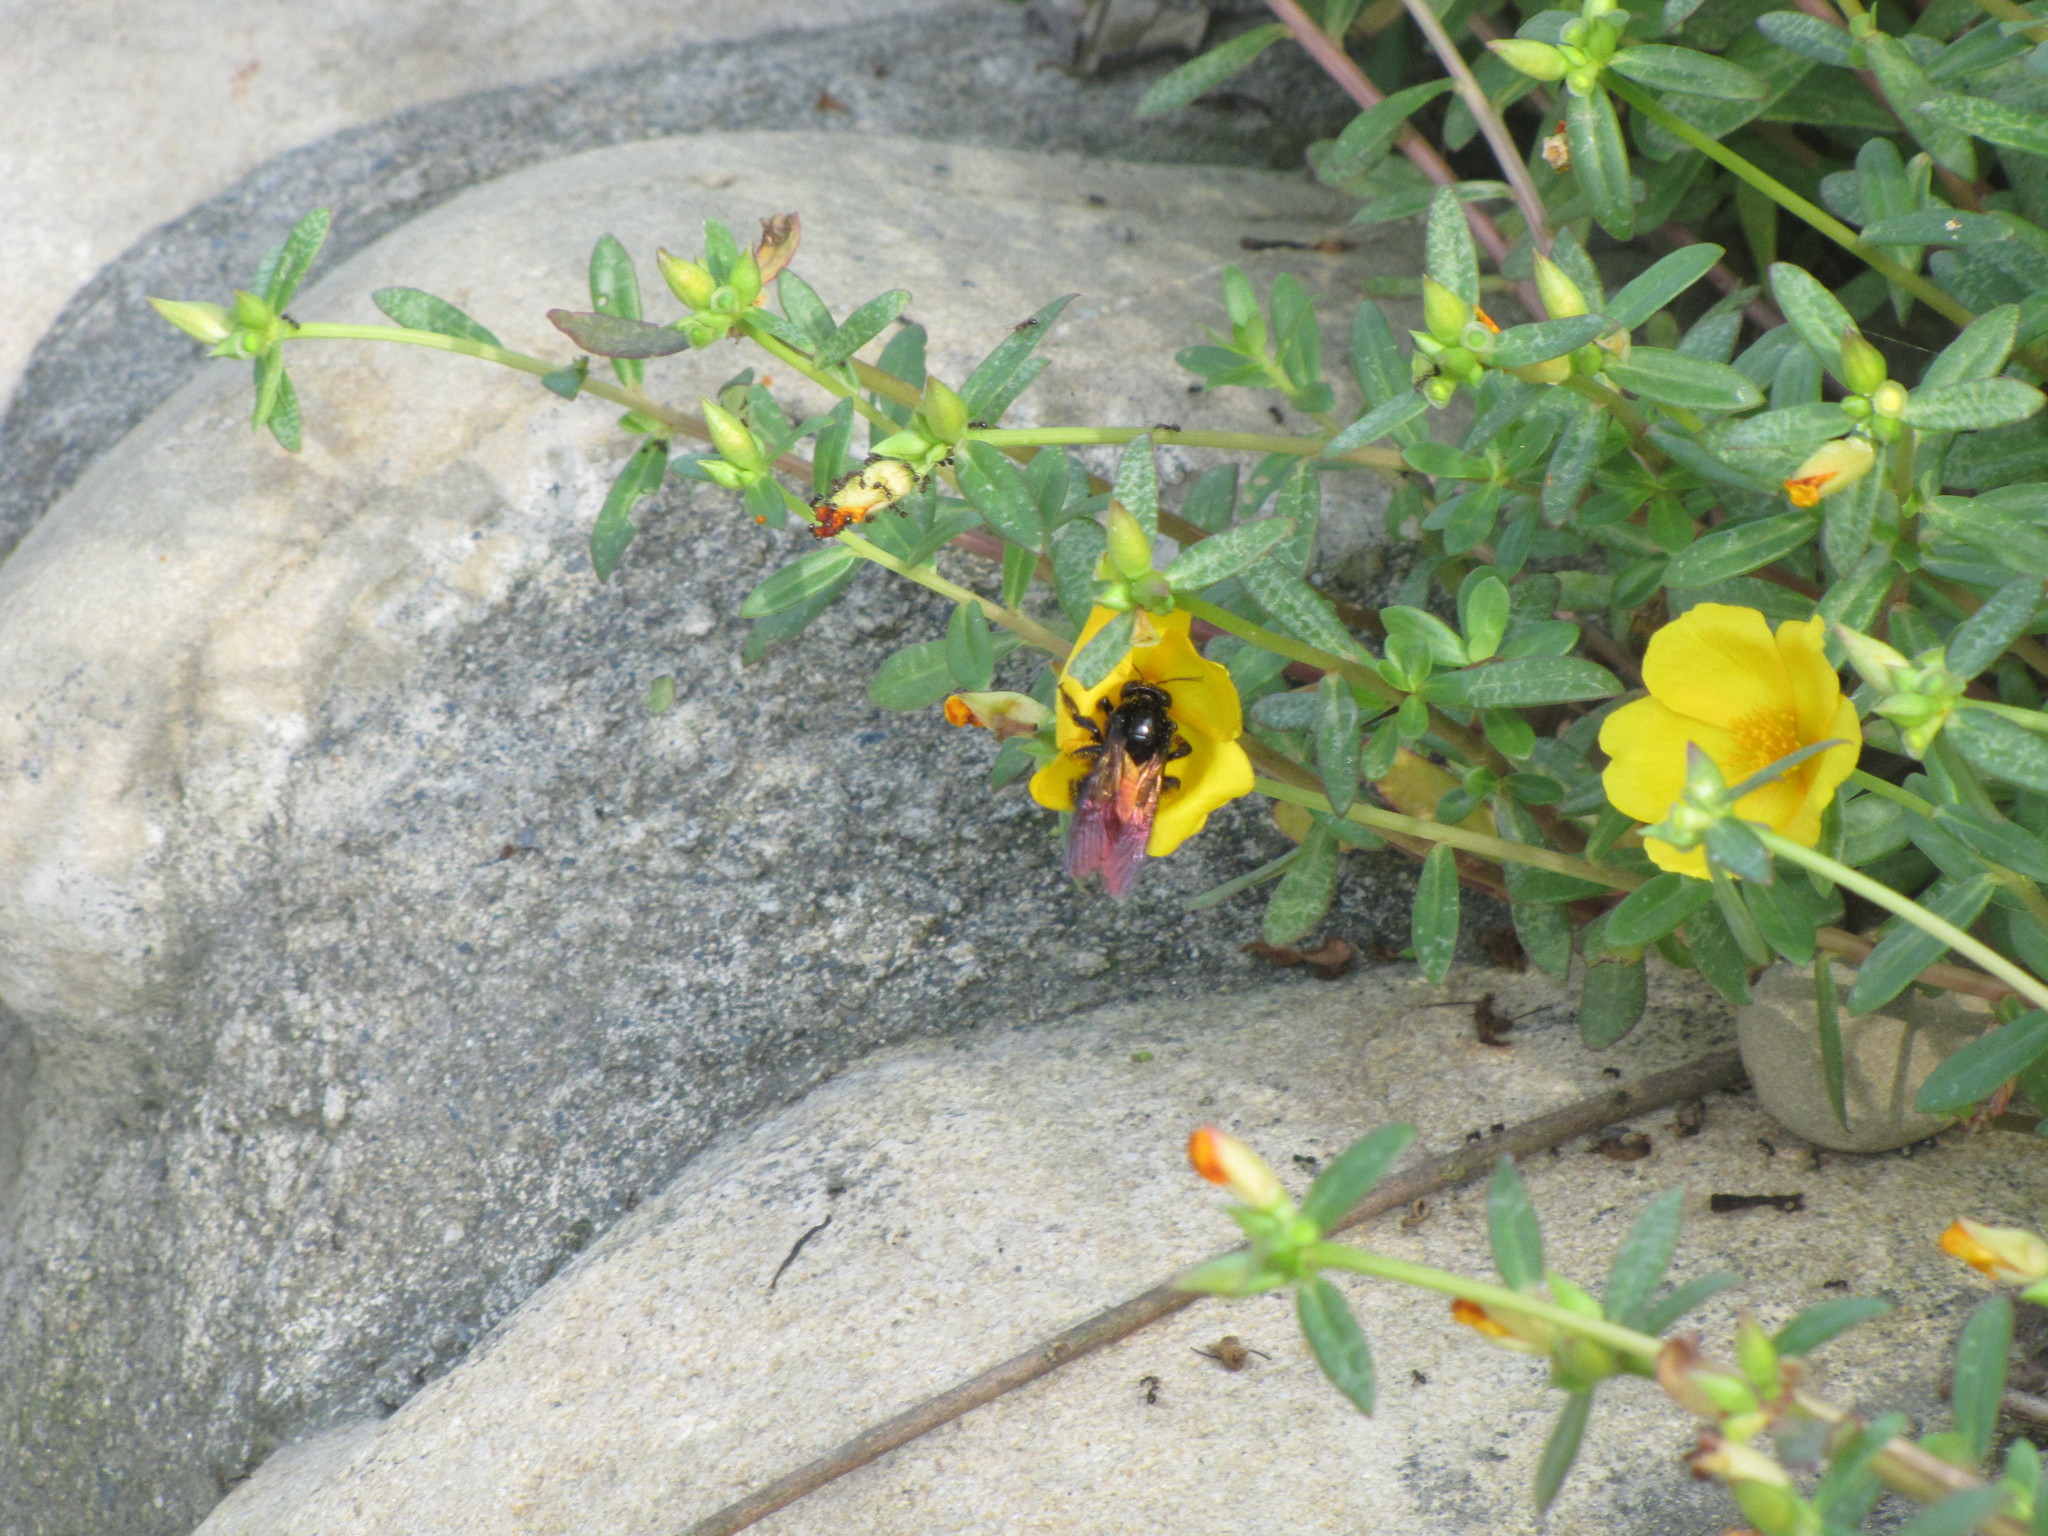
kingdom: Animalia
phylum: Arthropoda
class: Insecta
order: Hymenoptera
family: Apidae
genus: Xylocopa
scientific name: Xylocopa tranquebarorum
